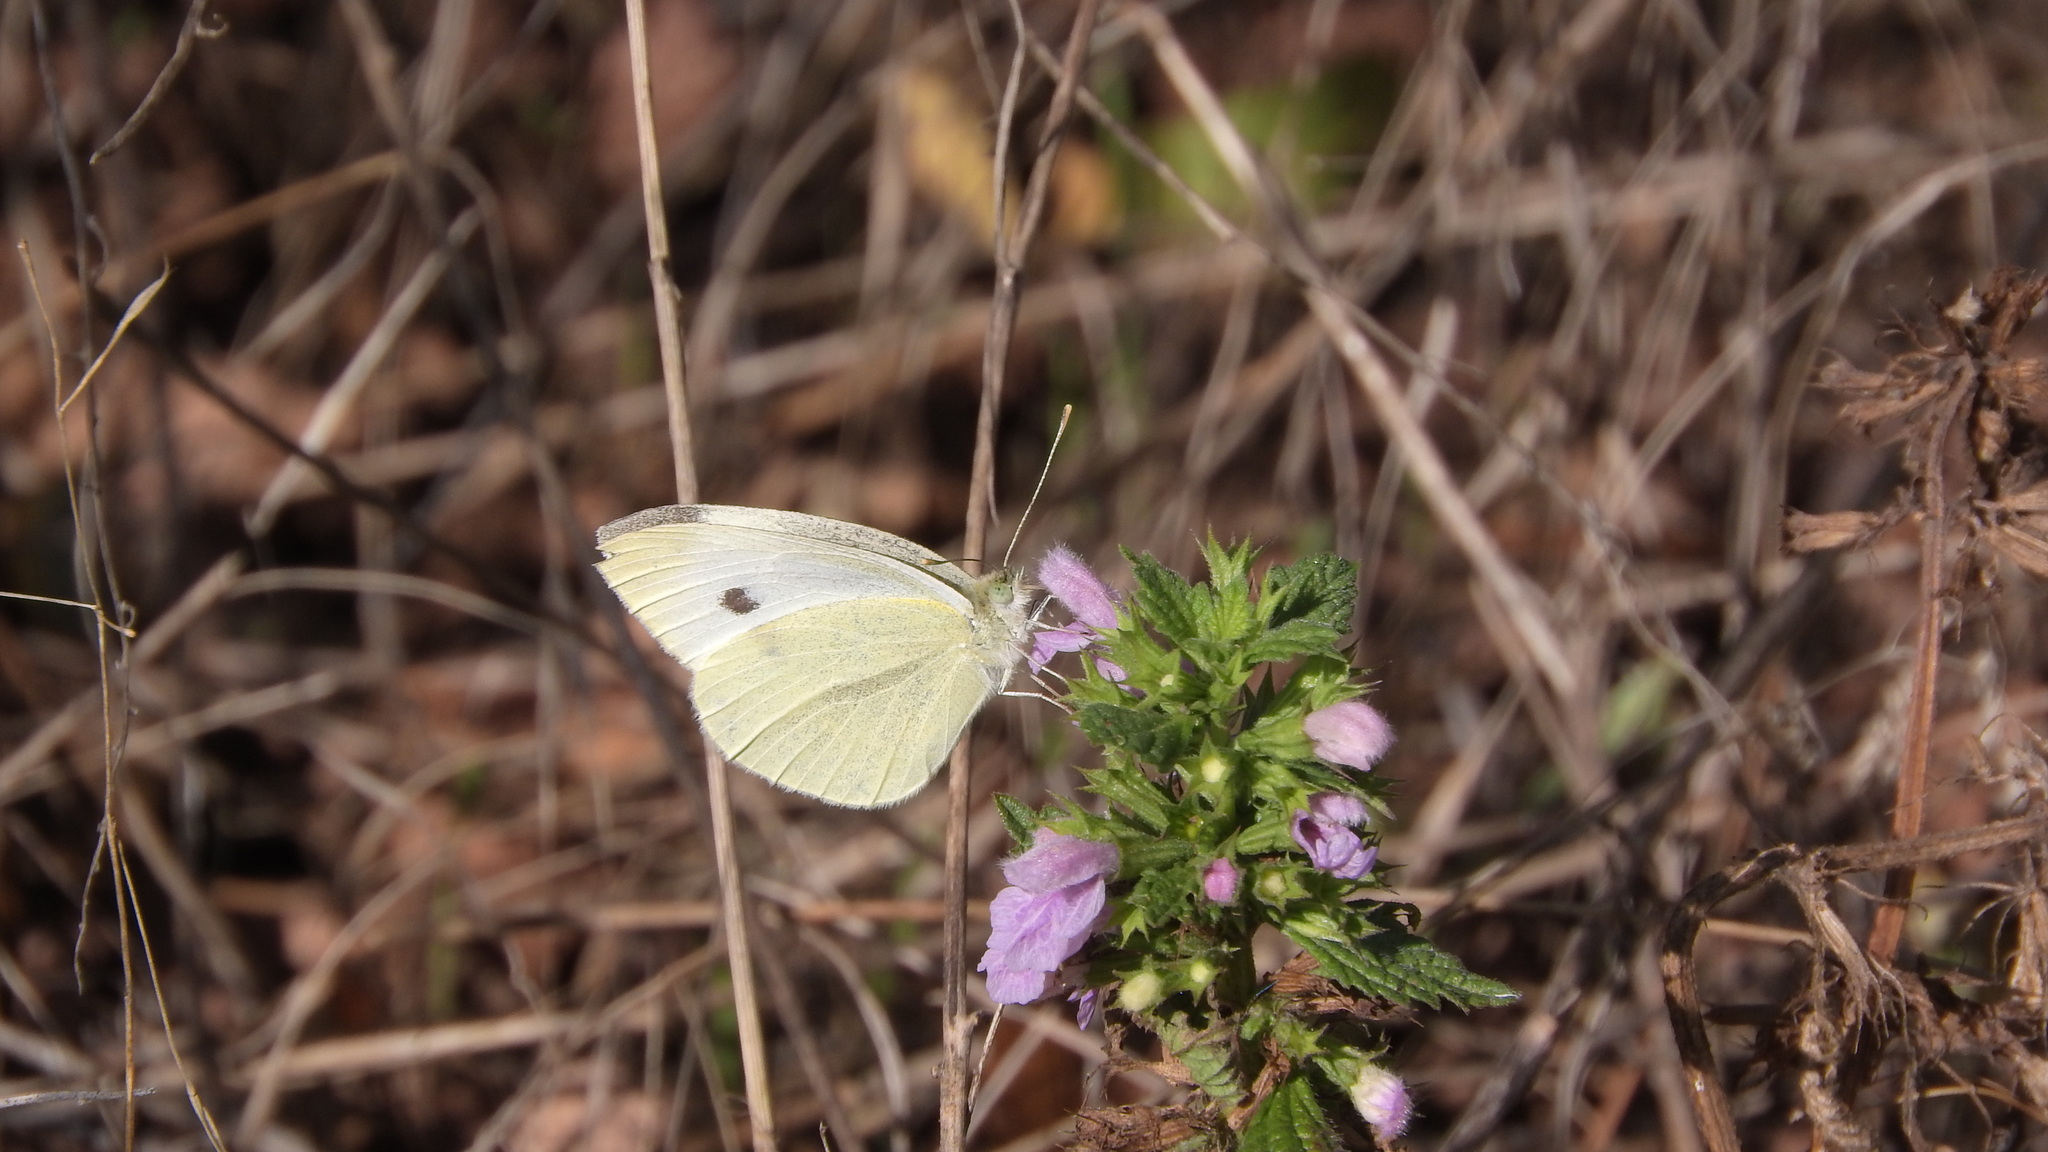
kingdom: Animalia
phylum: Arthropoda
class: Insecta
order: Lepidoptera
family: Pieridae
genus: Pieris
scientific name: Pieris rapae
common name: Small white
